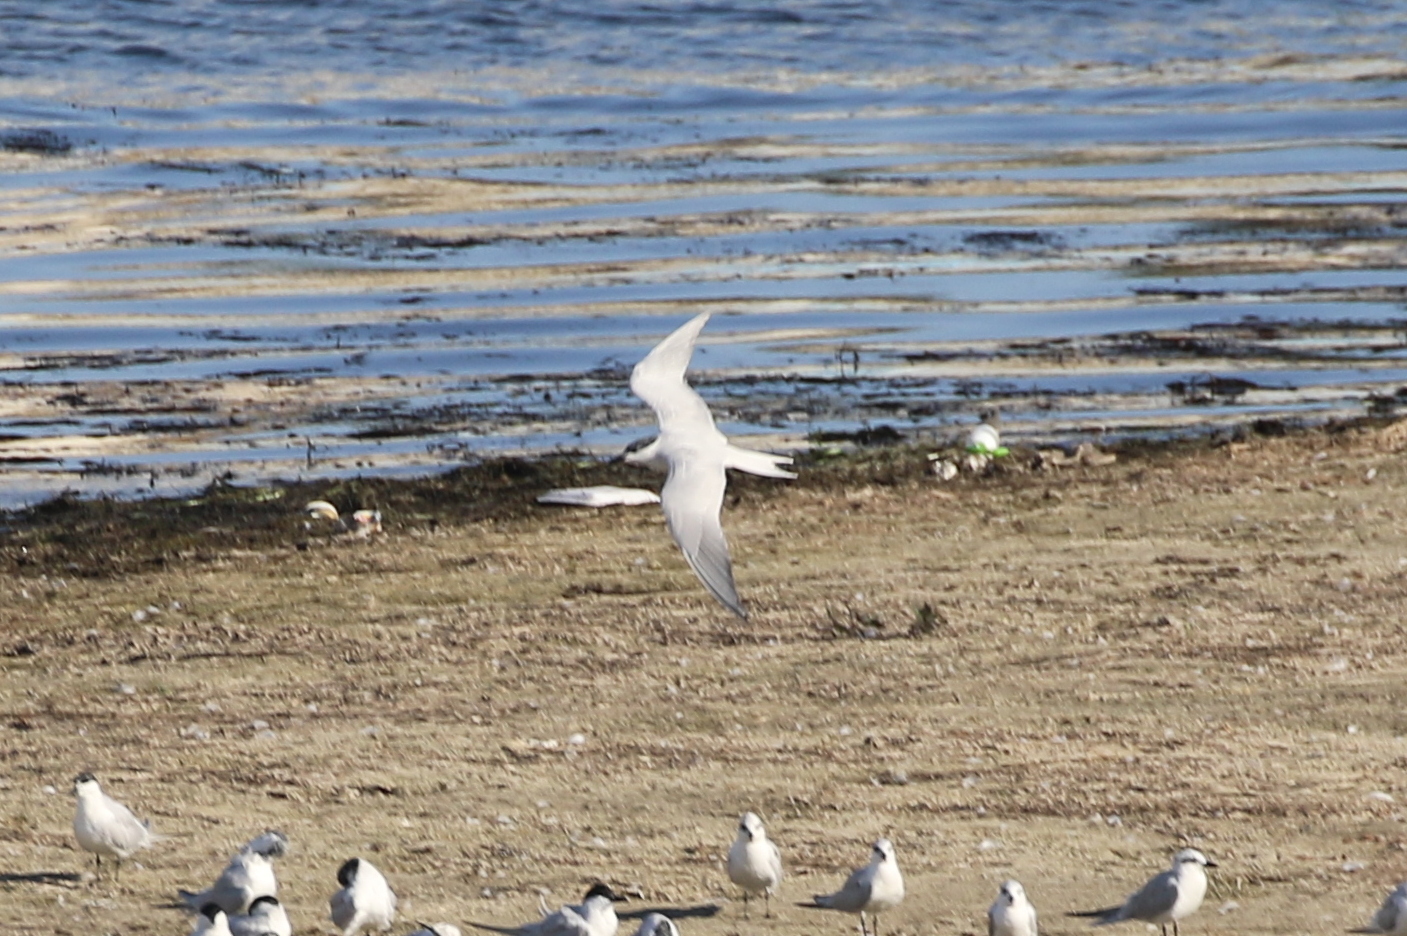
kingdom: Animalia
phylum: Chordata
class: Aves
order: Charadriiformes
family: Laridae
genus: Gelochelidon
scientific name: Gelochelidon nilotica
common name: Gull-billed tern
